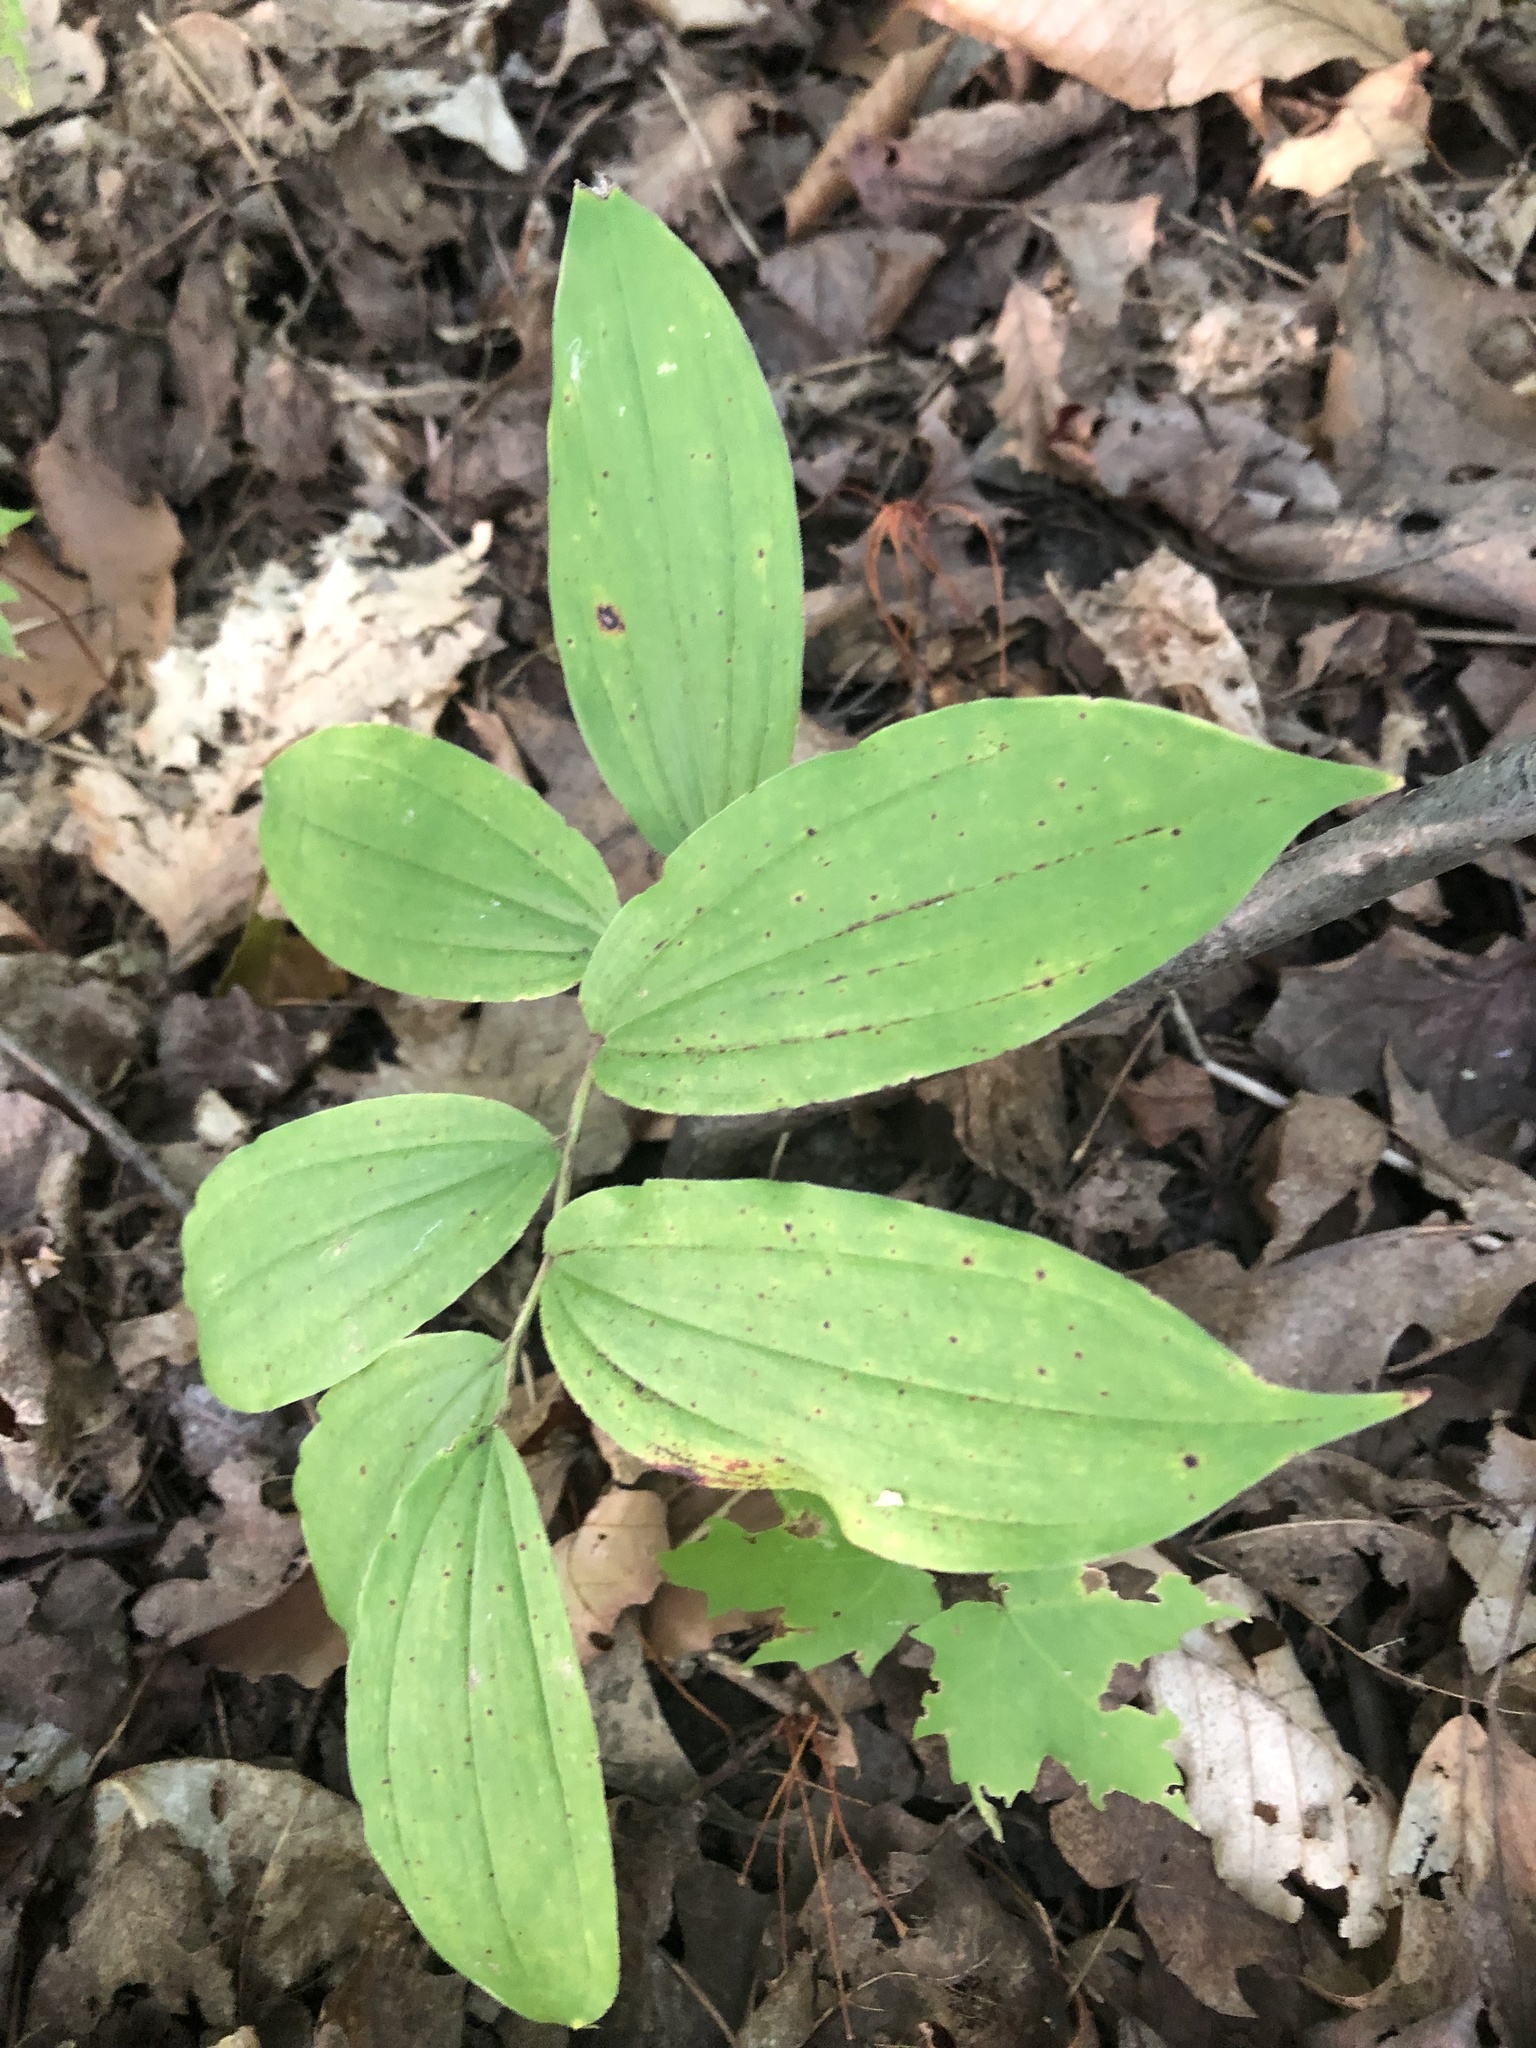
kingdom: Plantae
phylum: Tracheophyta
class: Liliopsida
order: Asparagales
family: Asparagaceae
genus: Maianthemum
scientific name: Maianthemum racemosum
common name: False spikenard
